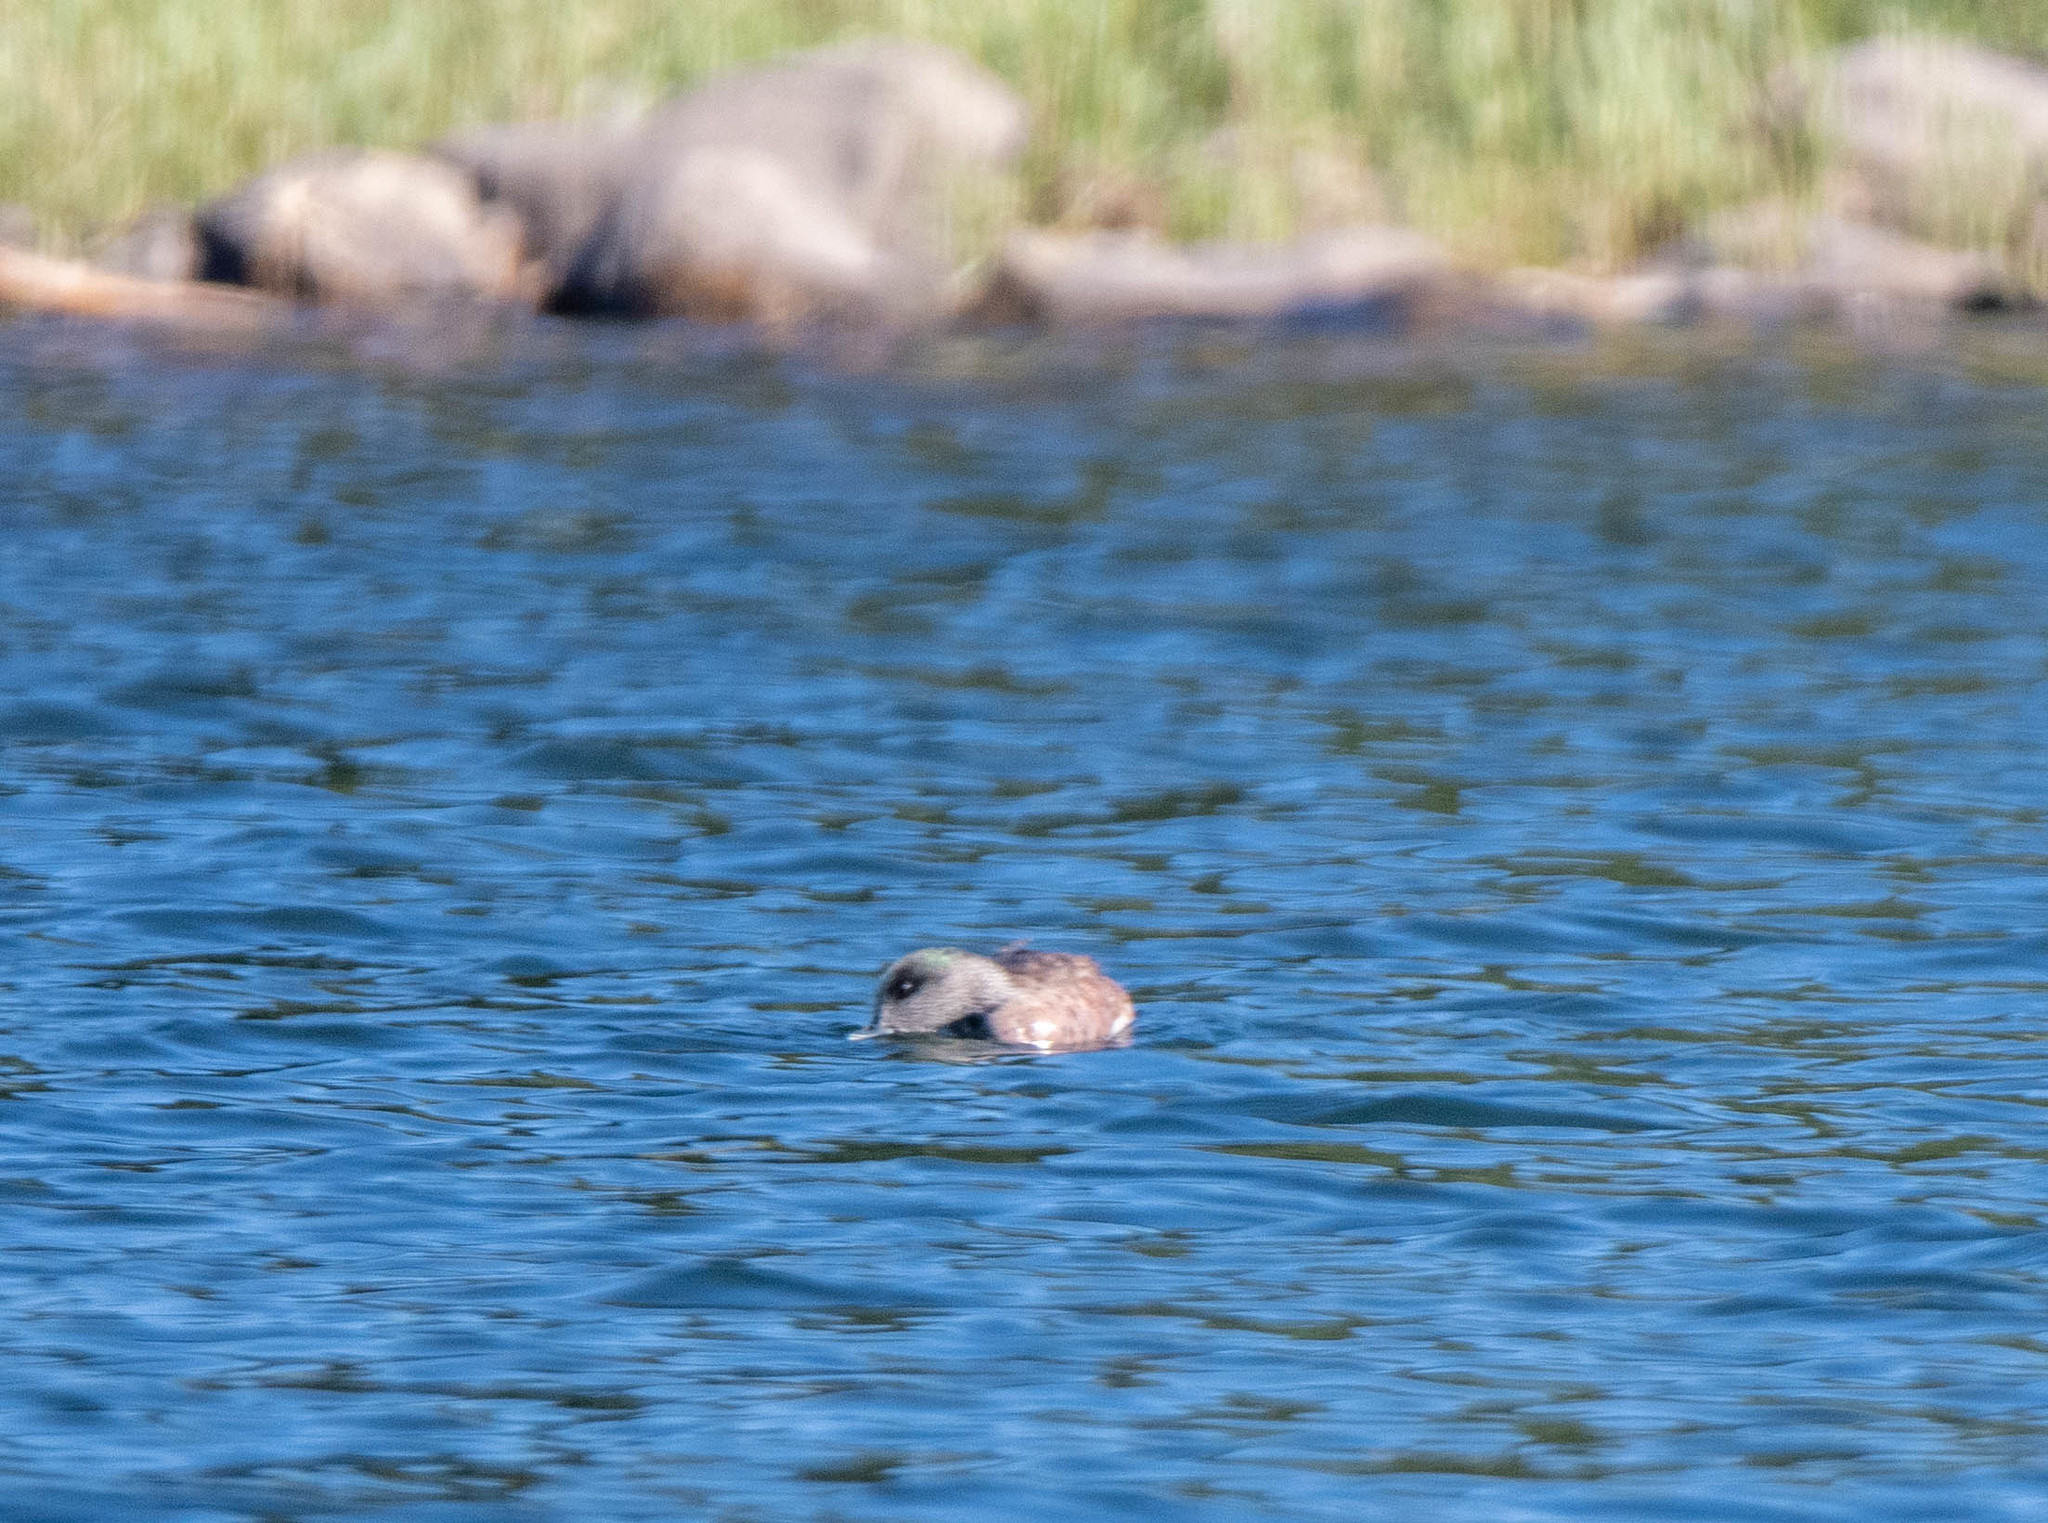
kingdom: Animalia
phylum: Chordata
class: Aves
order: Anseriformes
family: Anatidae
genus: Mareca
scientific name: Mareca americana
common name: American wigeon
